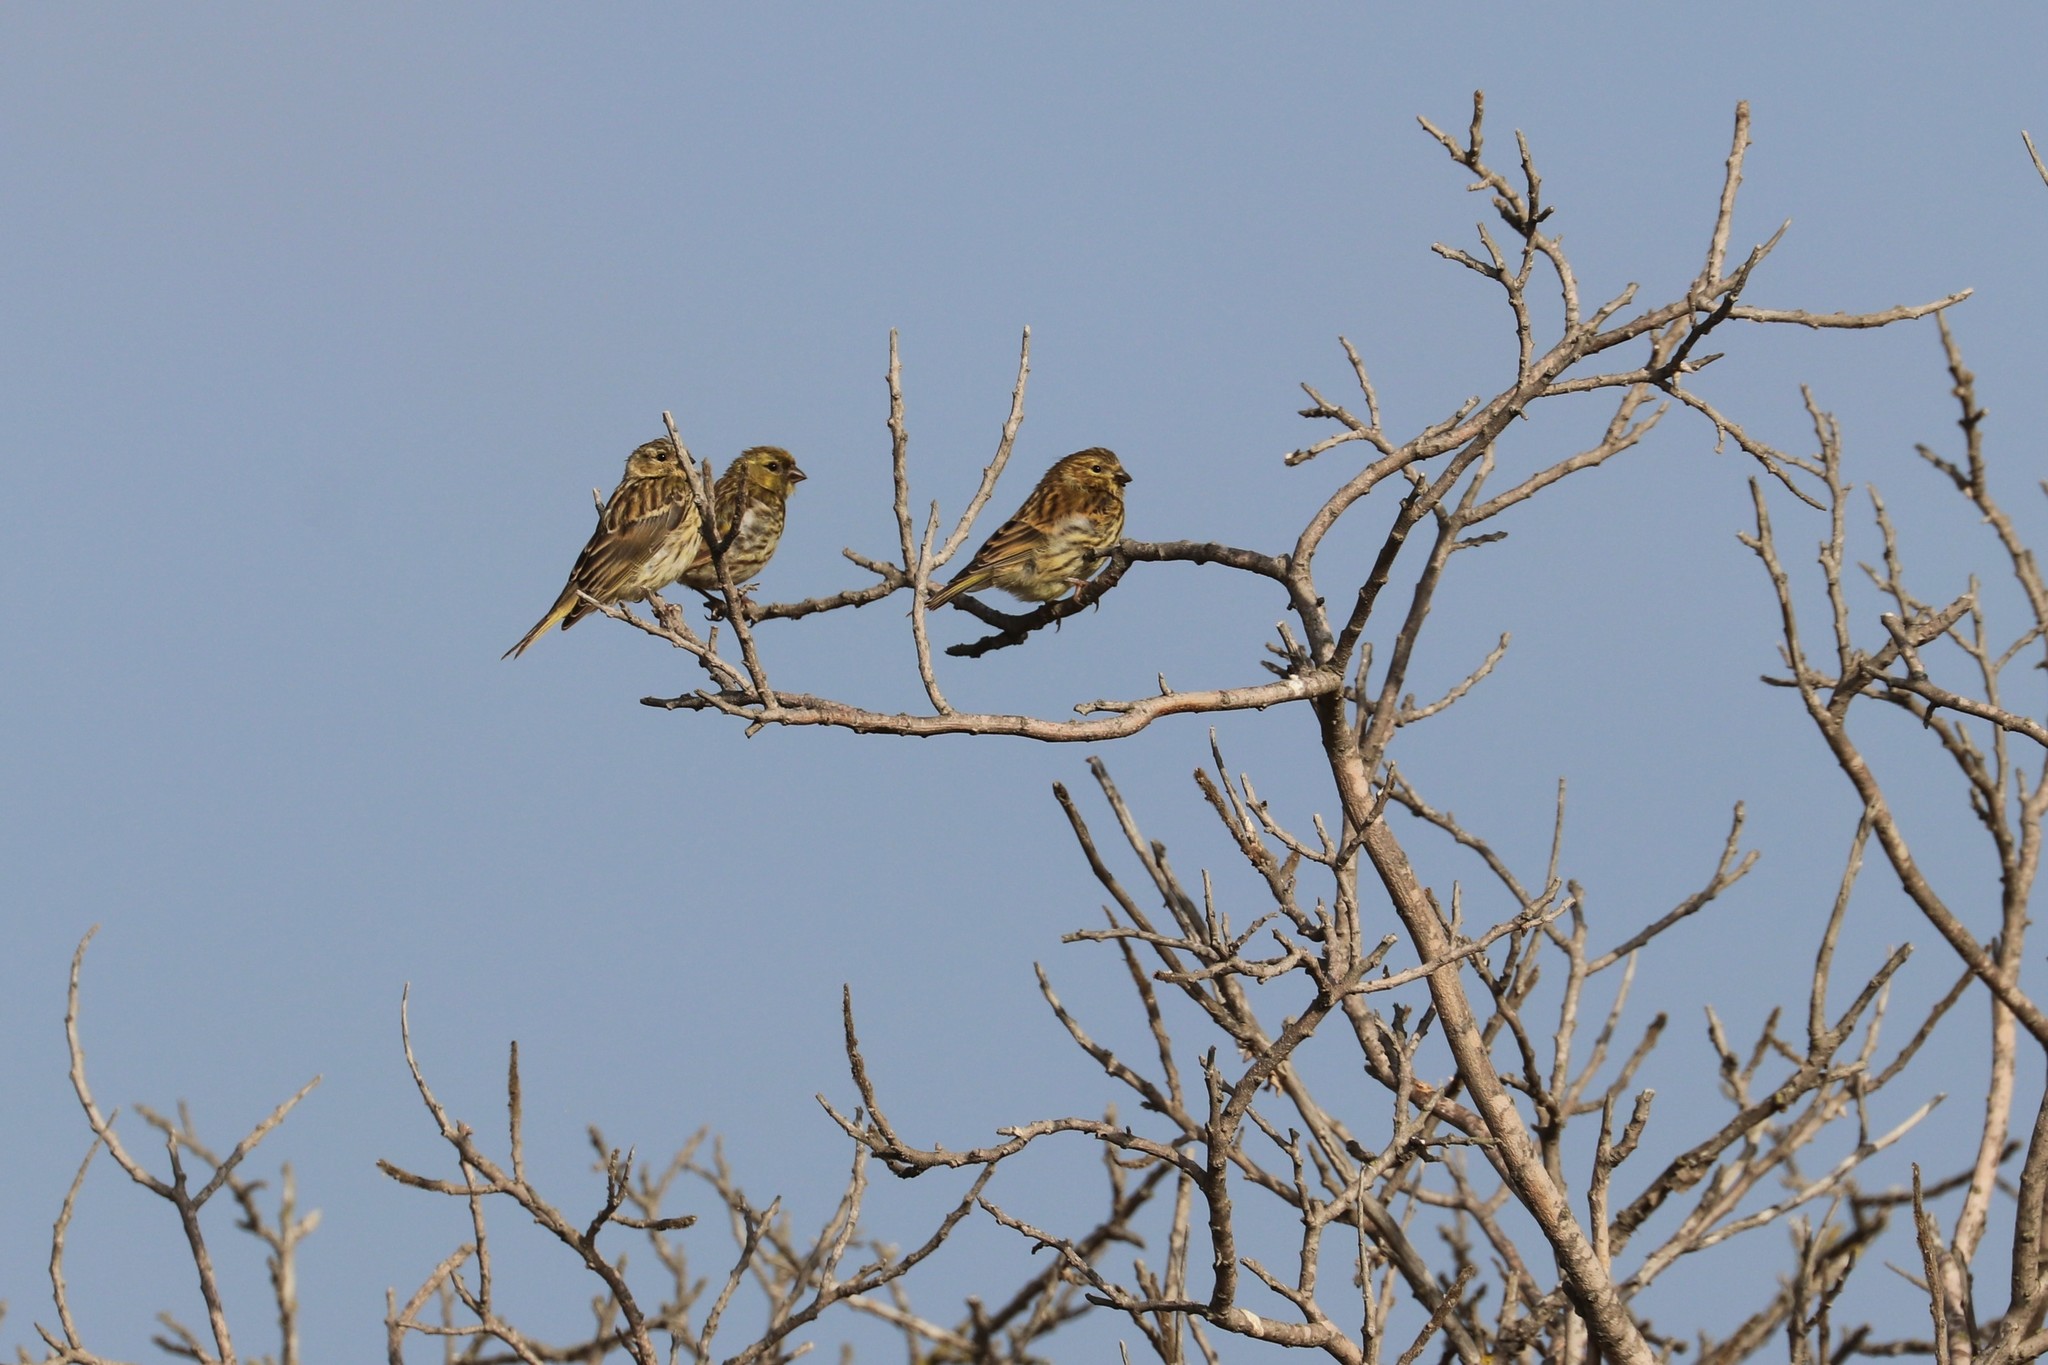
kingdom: Animalia
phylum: Chordata
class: Aves
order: Passeriformes
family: Fringillidae
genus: Serinus
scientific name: Serinus serinus
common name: European serin
